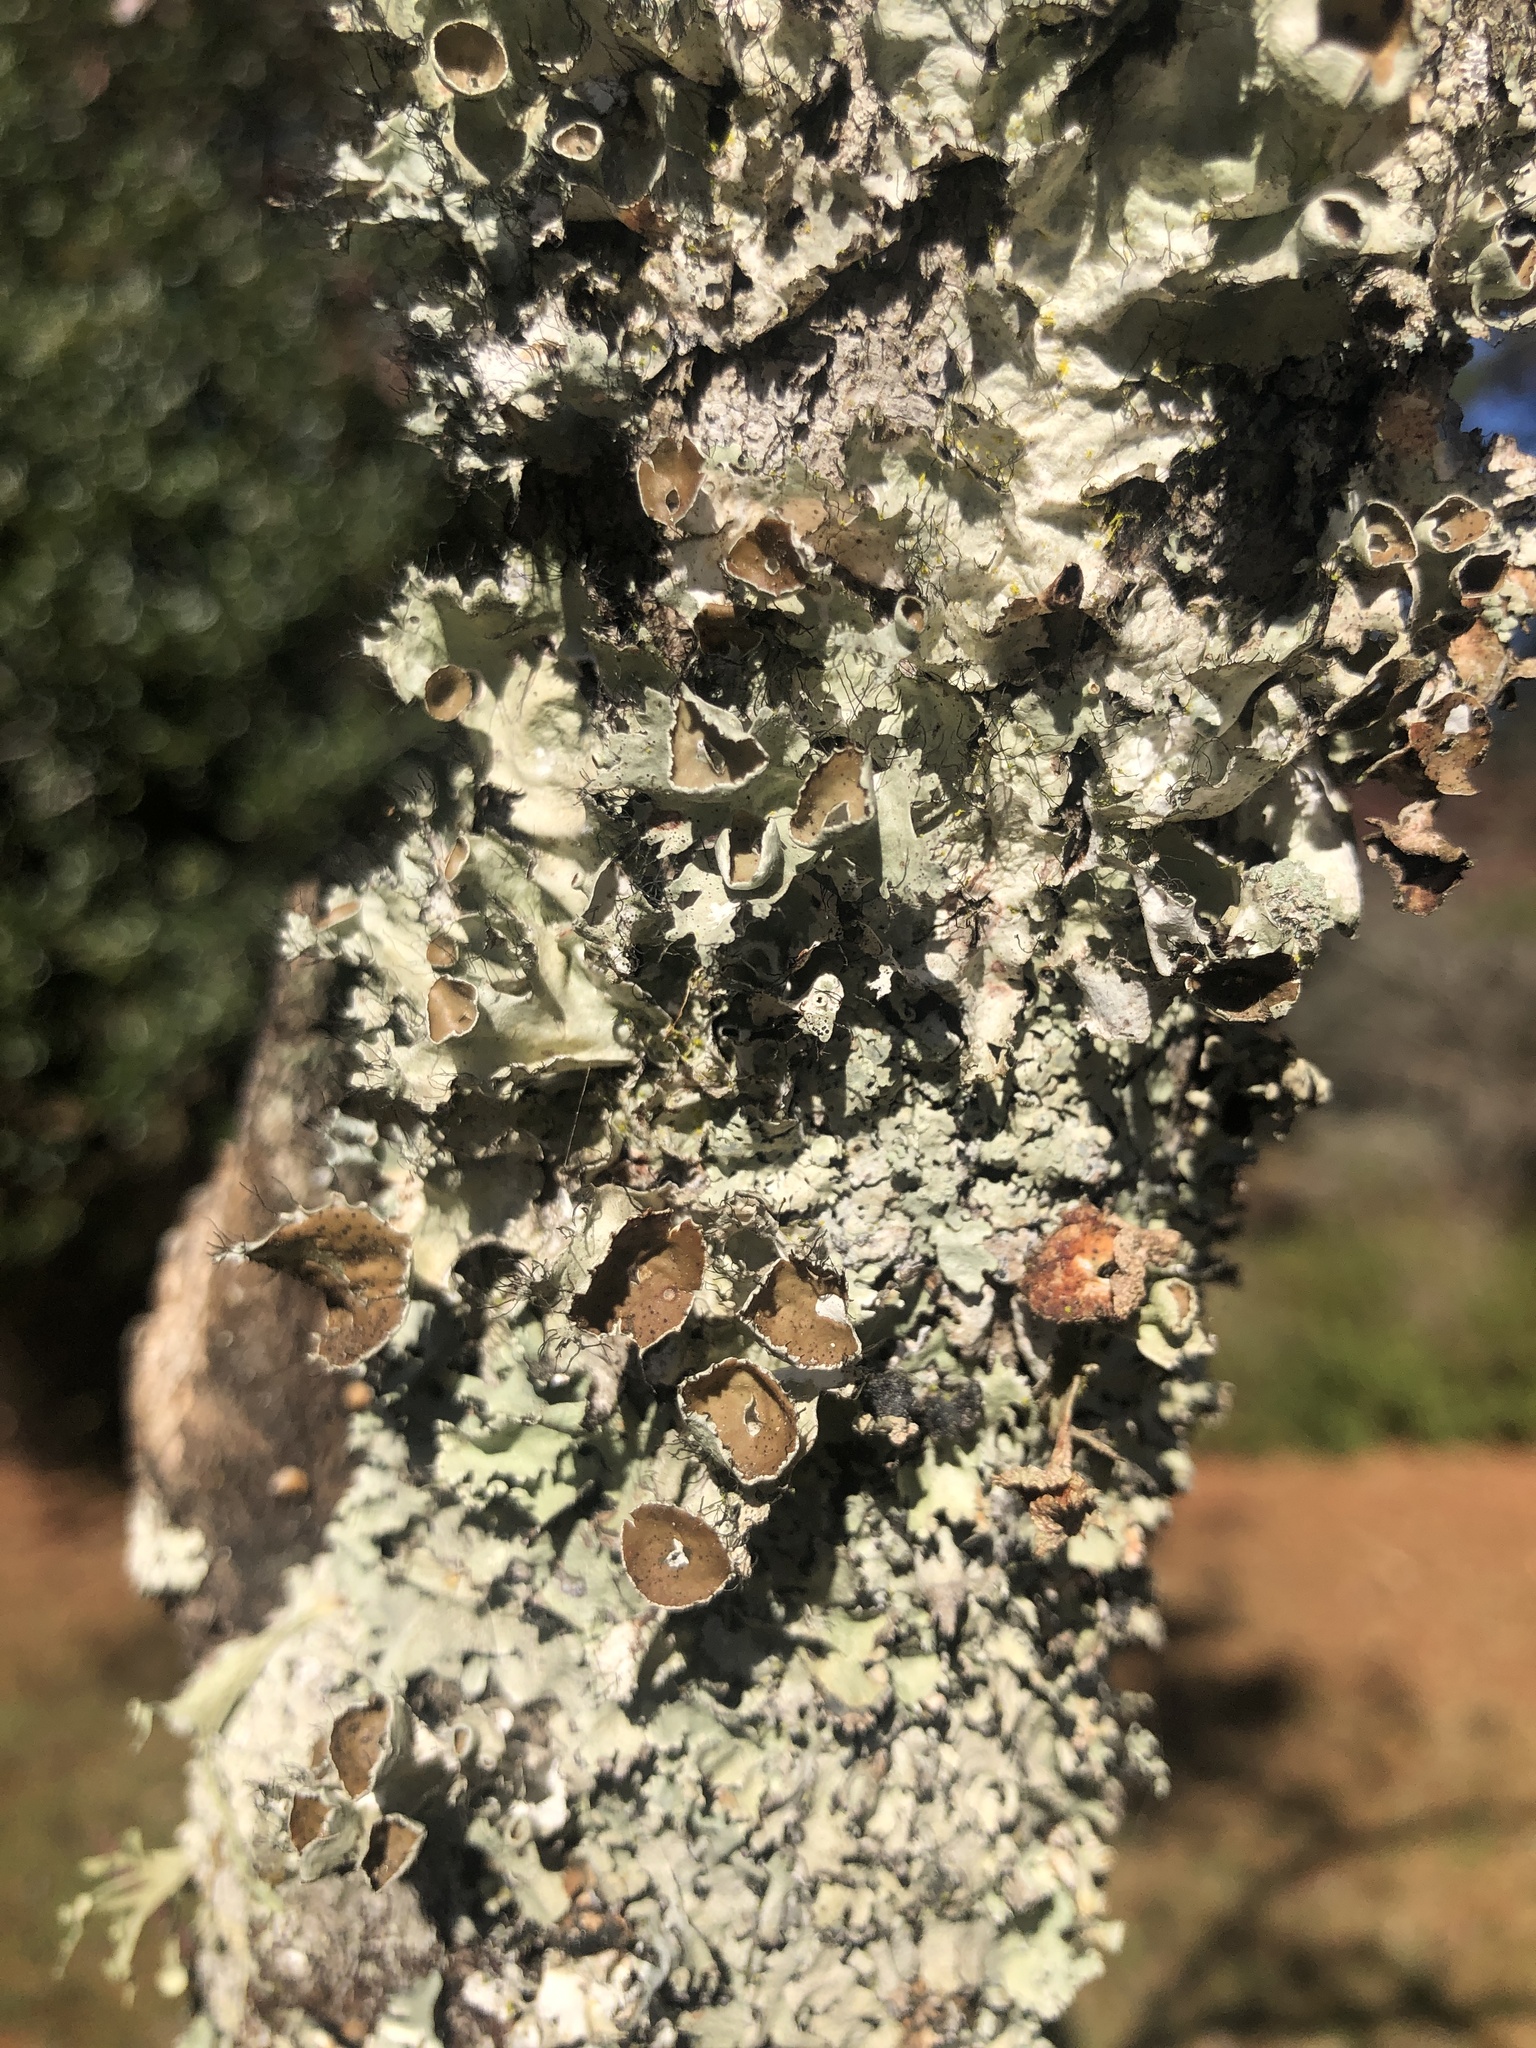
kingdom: Fungi
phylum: Ascomycota
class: Lecanoromycetes
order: Lecanorales
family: Parmeliaceae
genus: Parmotrema
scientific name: Parmotrema perforatum
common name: Perforated ruffle lichen
